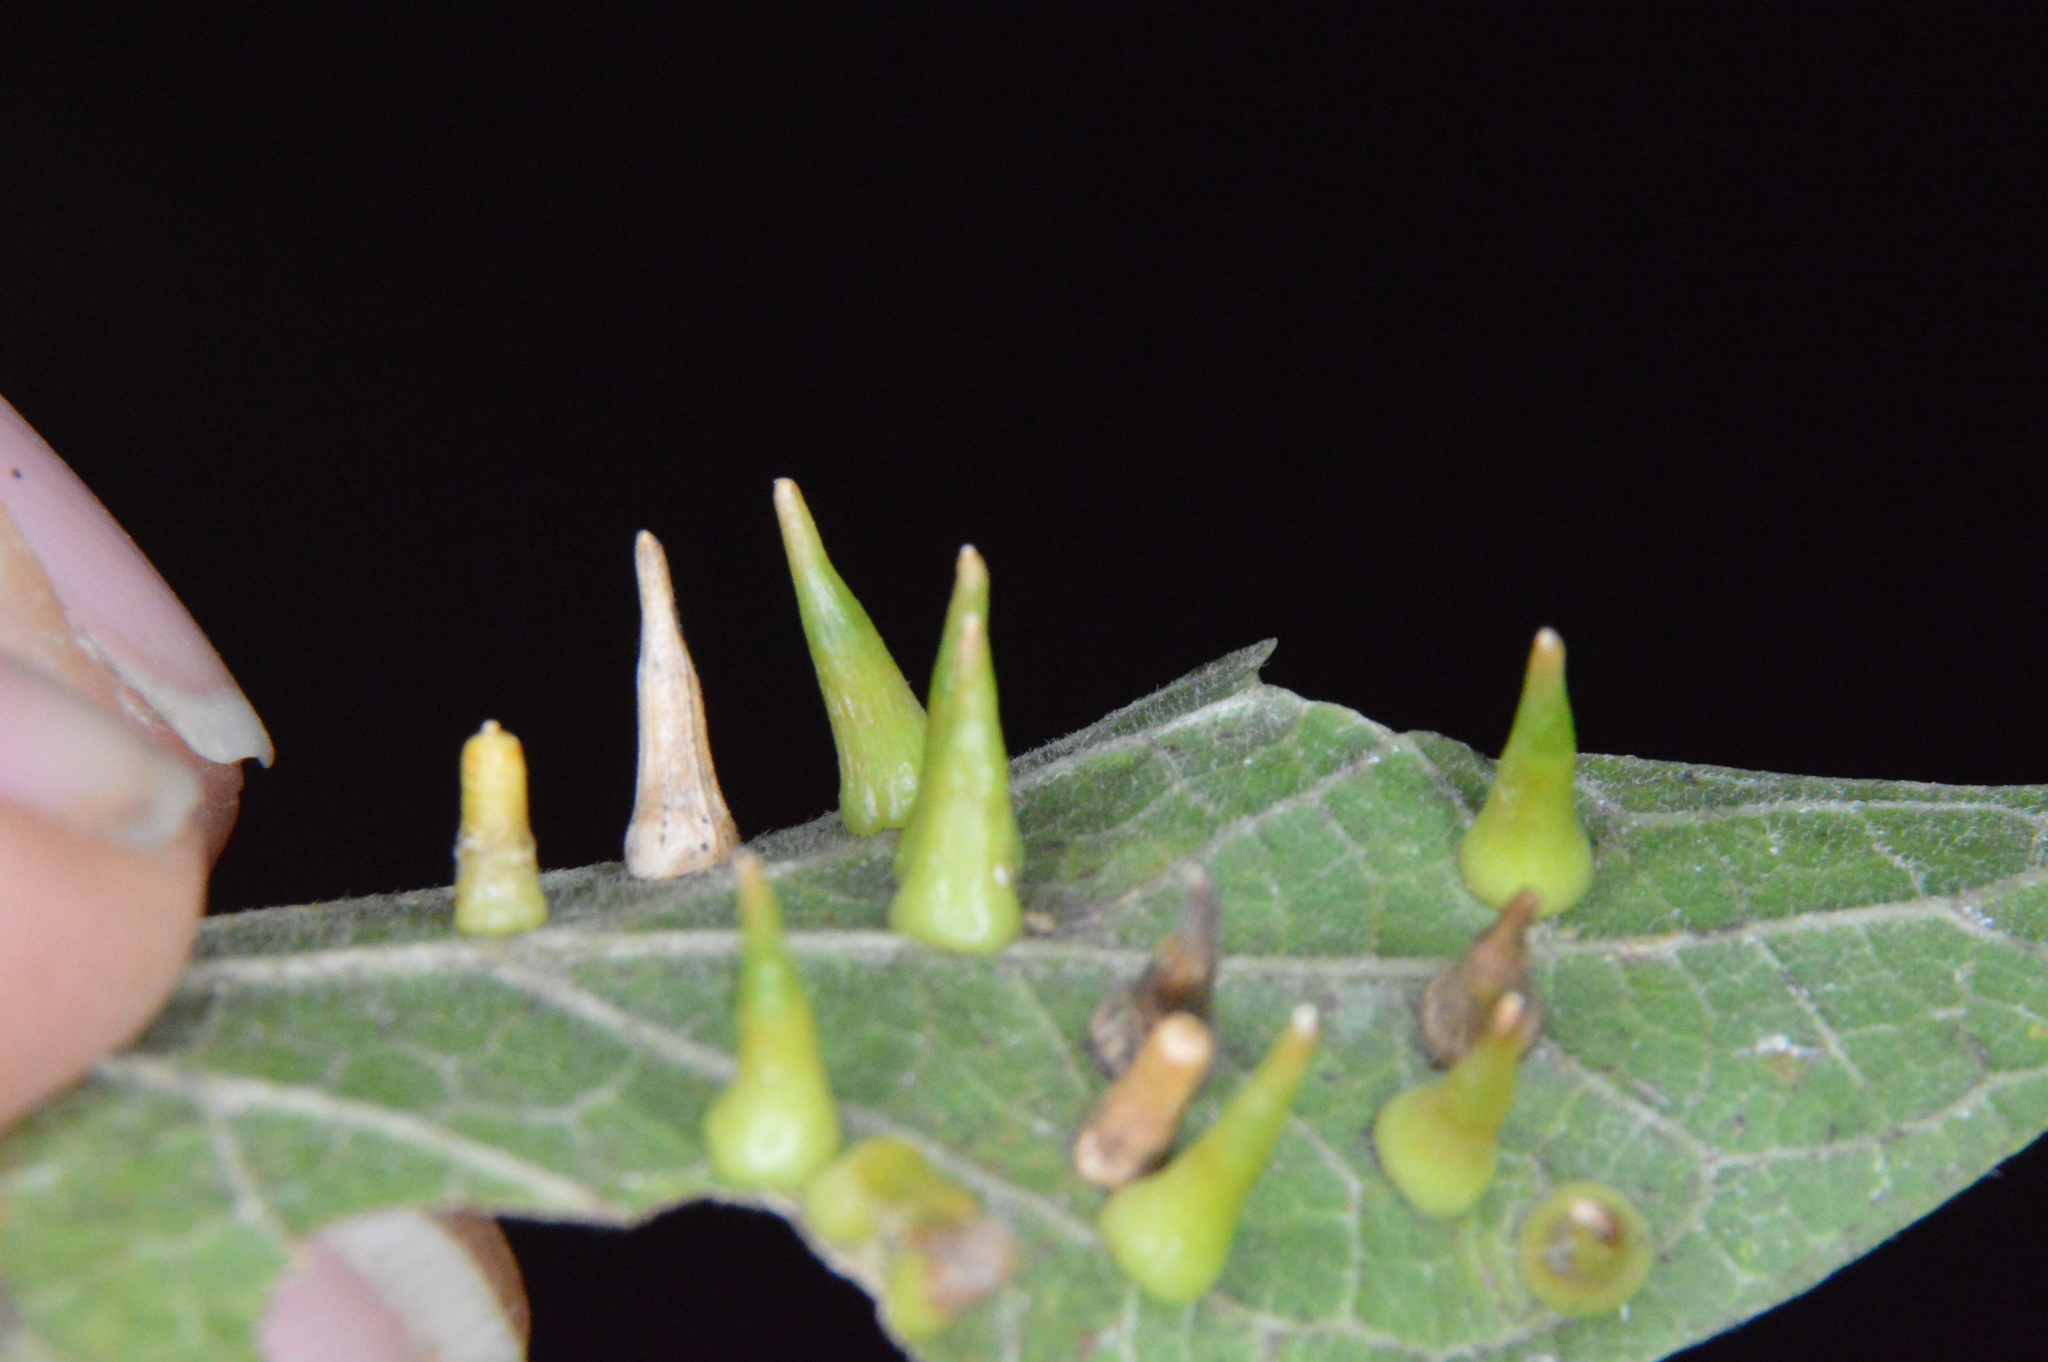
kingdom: Animalia
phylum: Arthropoda
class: Insecta
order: Diptera
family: Cecidomyiidae
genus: Celticecis
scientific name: Celticecis subulata
